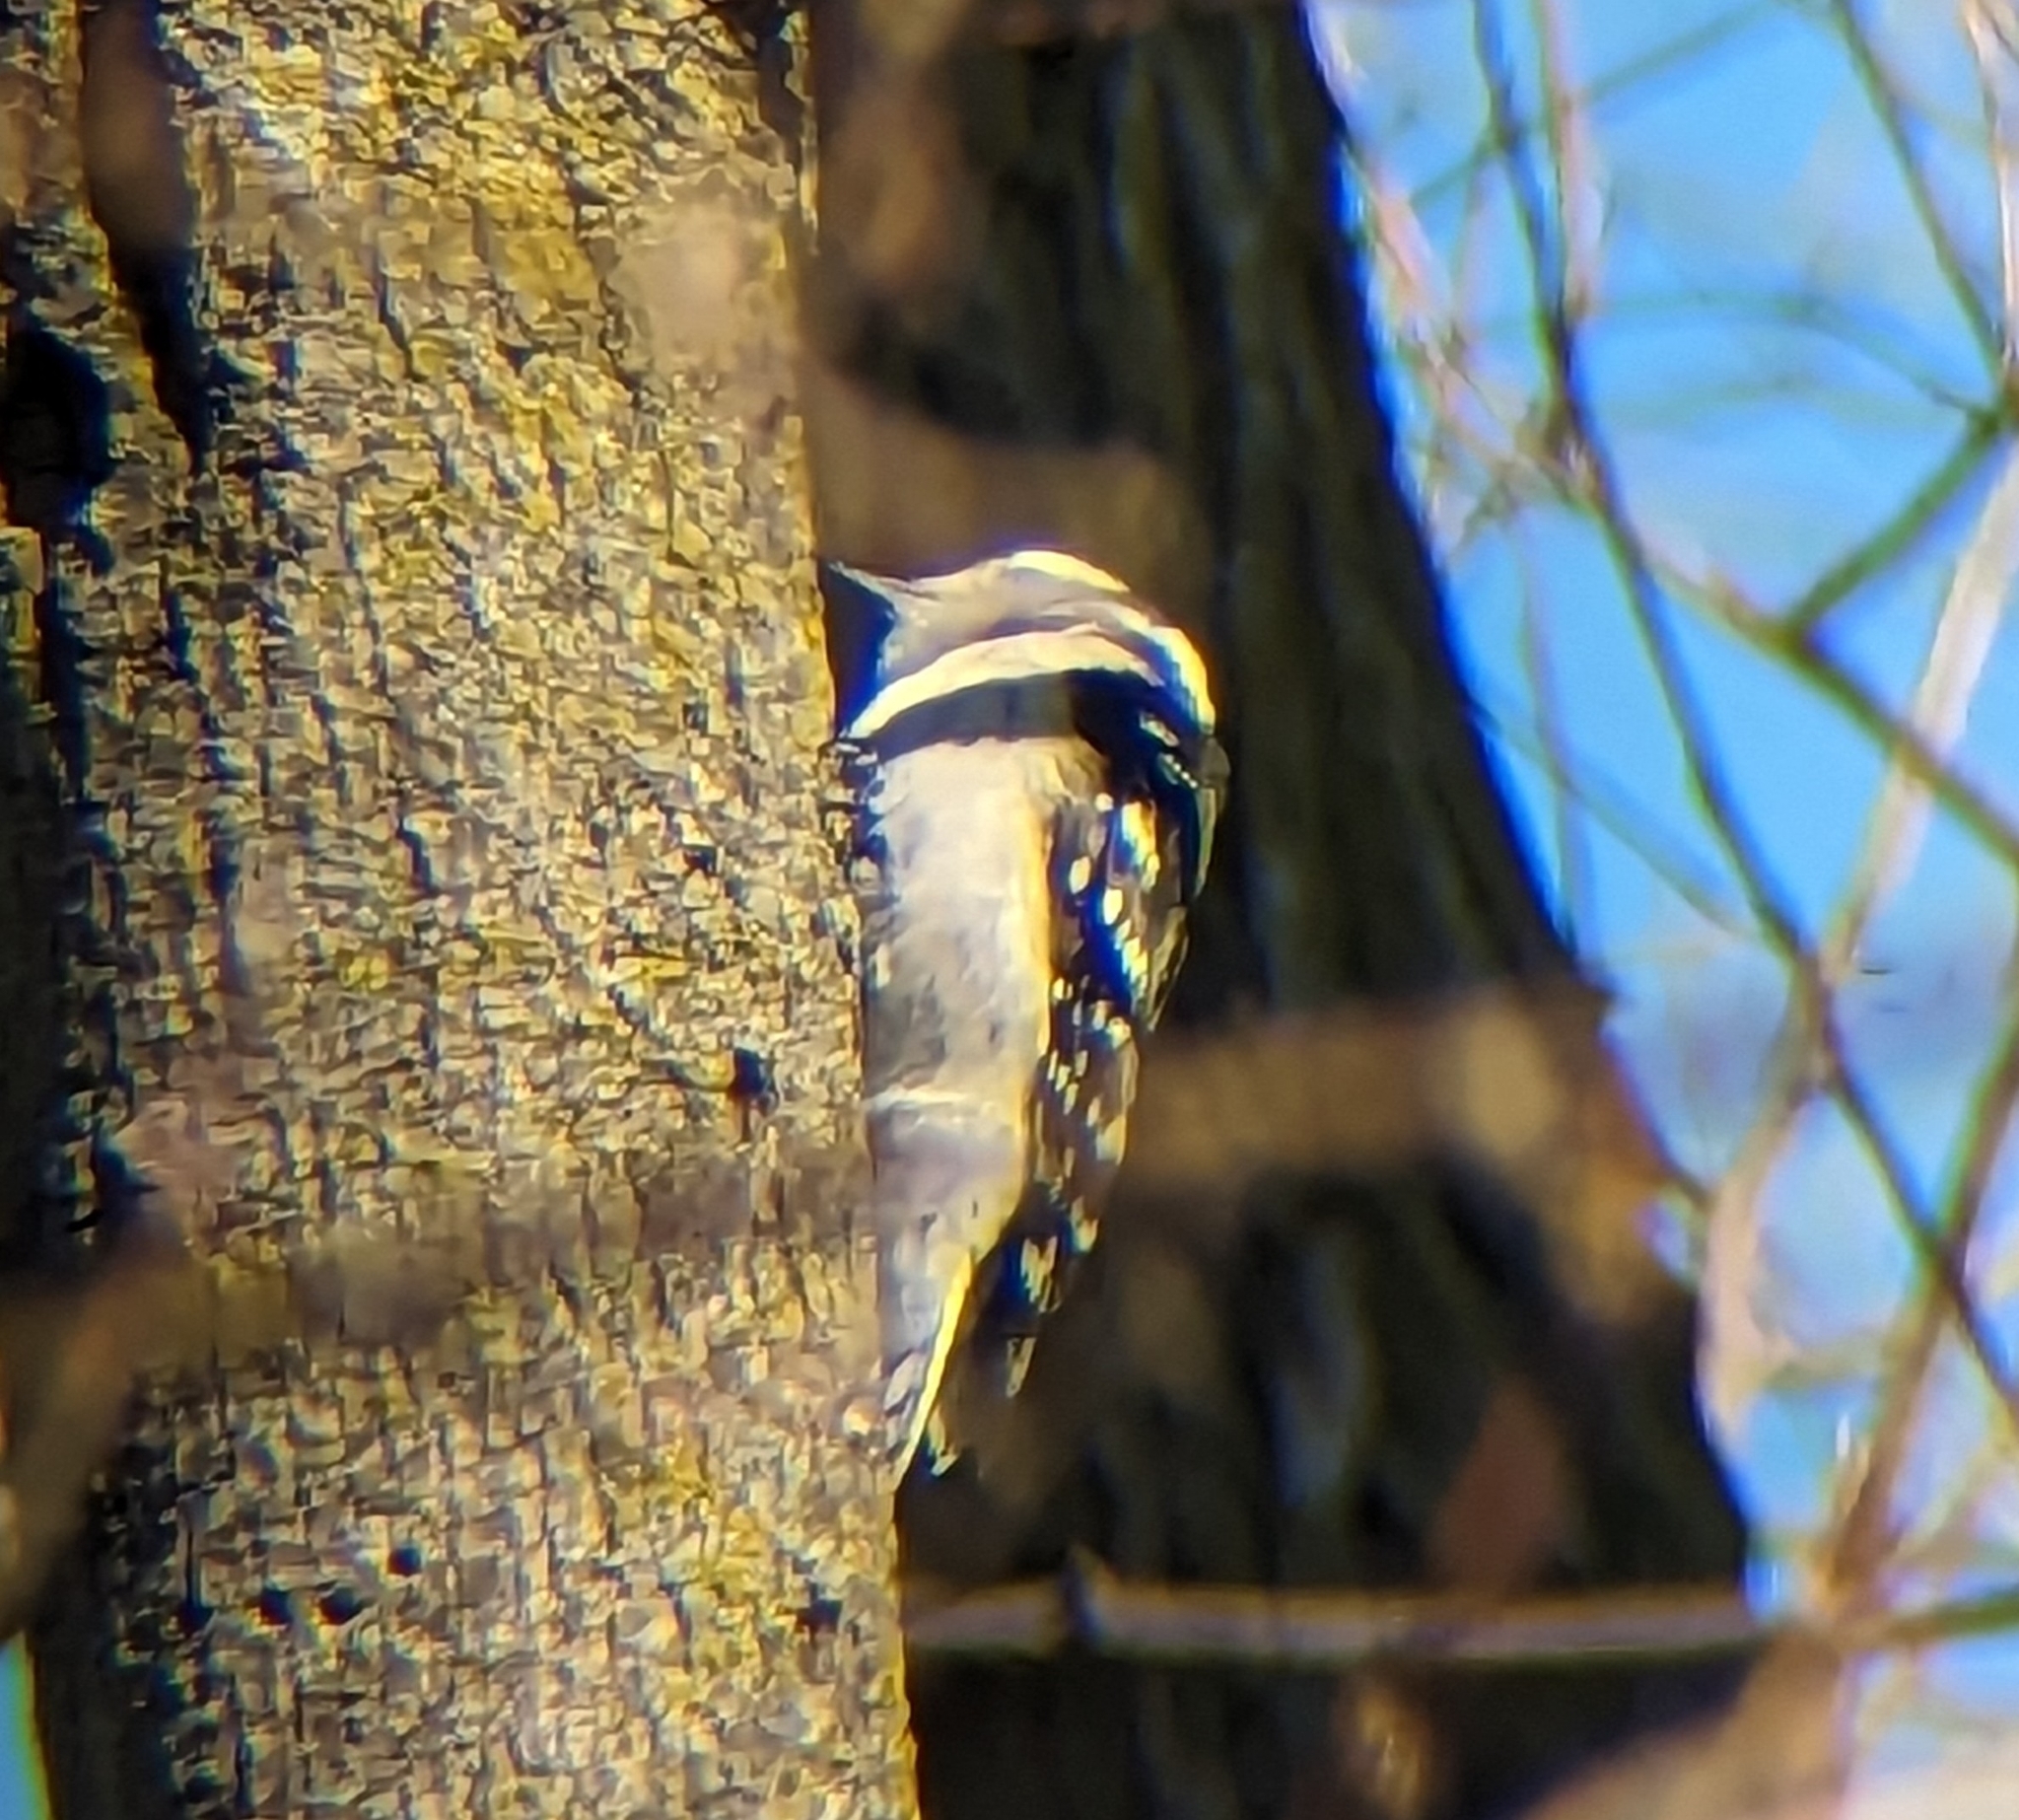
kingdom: Animalia
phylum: Chordata
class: Aves
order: Piciformes
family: Picidae
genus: Dryobates
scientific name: Dryobates pubescens
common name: Downy woodpecker
